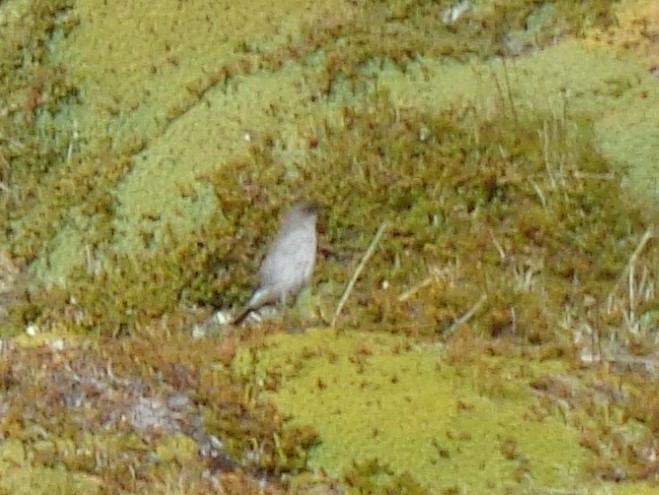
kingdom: Animalia
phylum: Chordata
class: Aves
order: Passeriformes
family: Tyrannidae
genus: Muscisaxicola
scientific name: Muscisaxicola maclovianus
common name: Dark-faced ground tyrant
